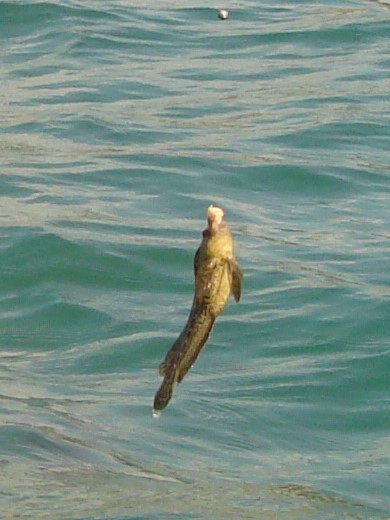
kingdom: Animalia
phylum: Chordata
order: Perciformes
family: Blenniidae
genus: Parablennius
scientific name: Parablennius sanguinolentus
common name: Black sea blenny
